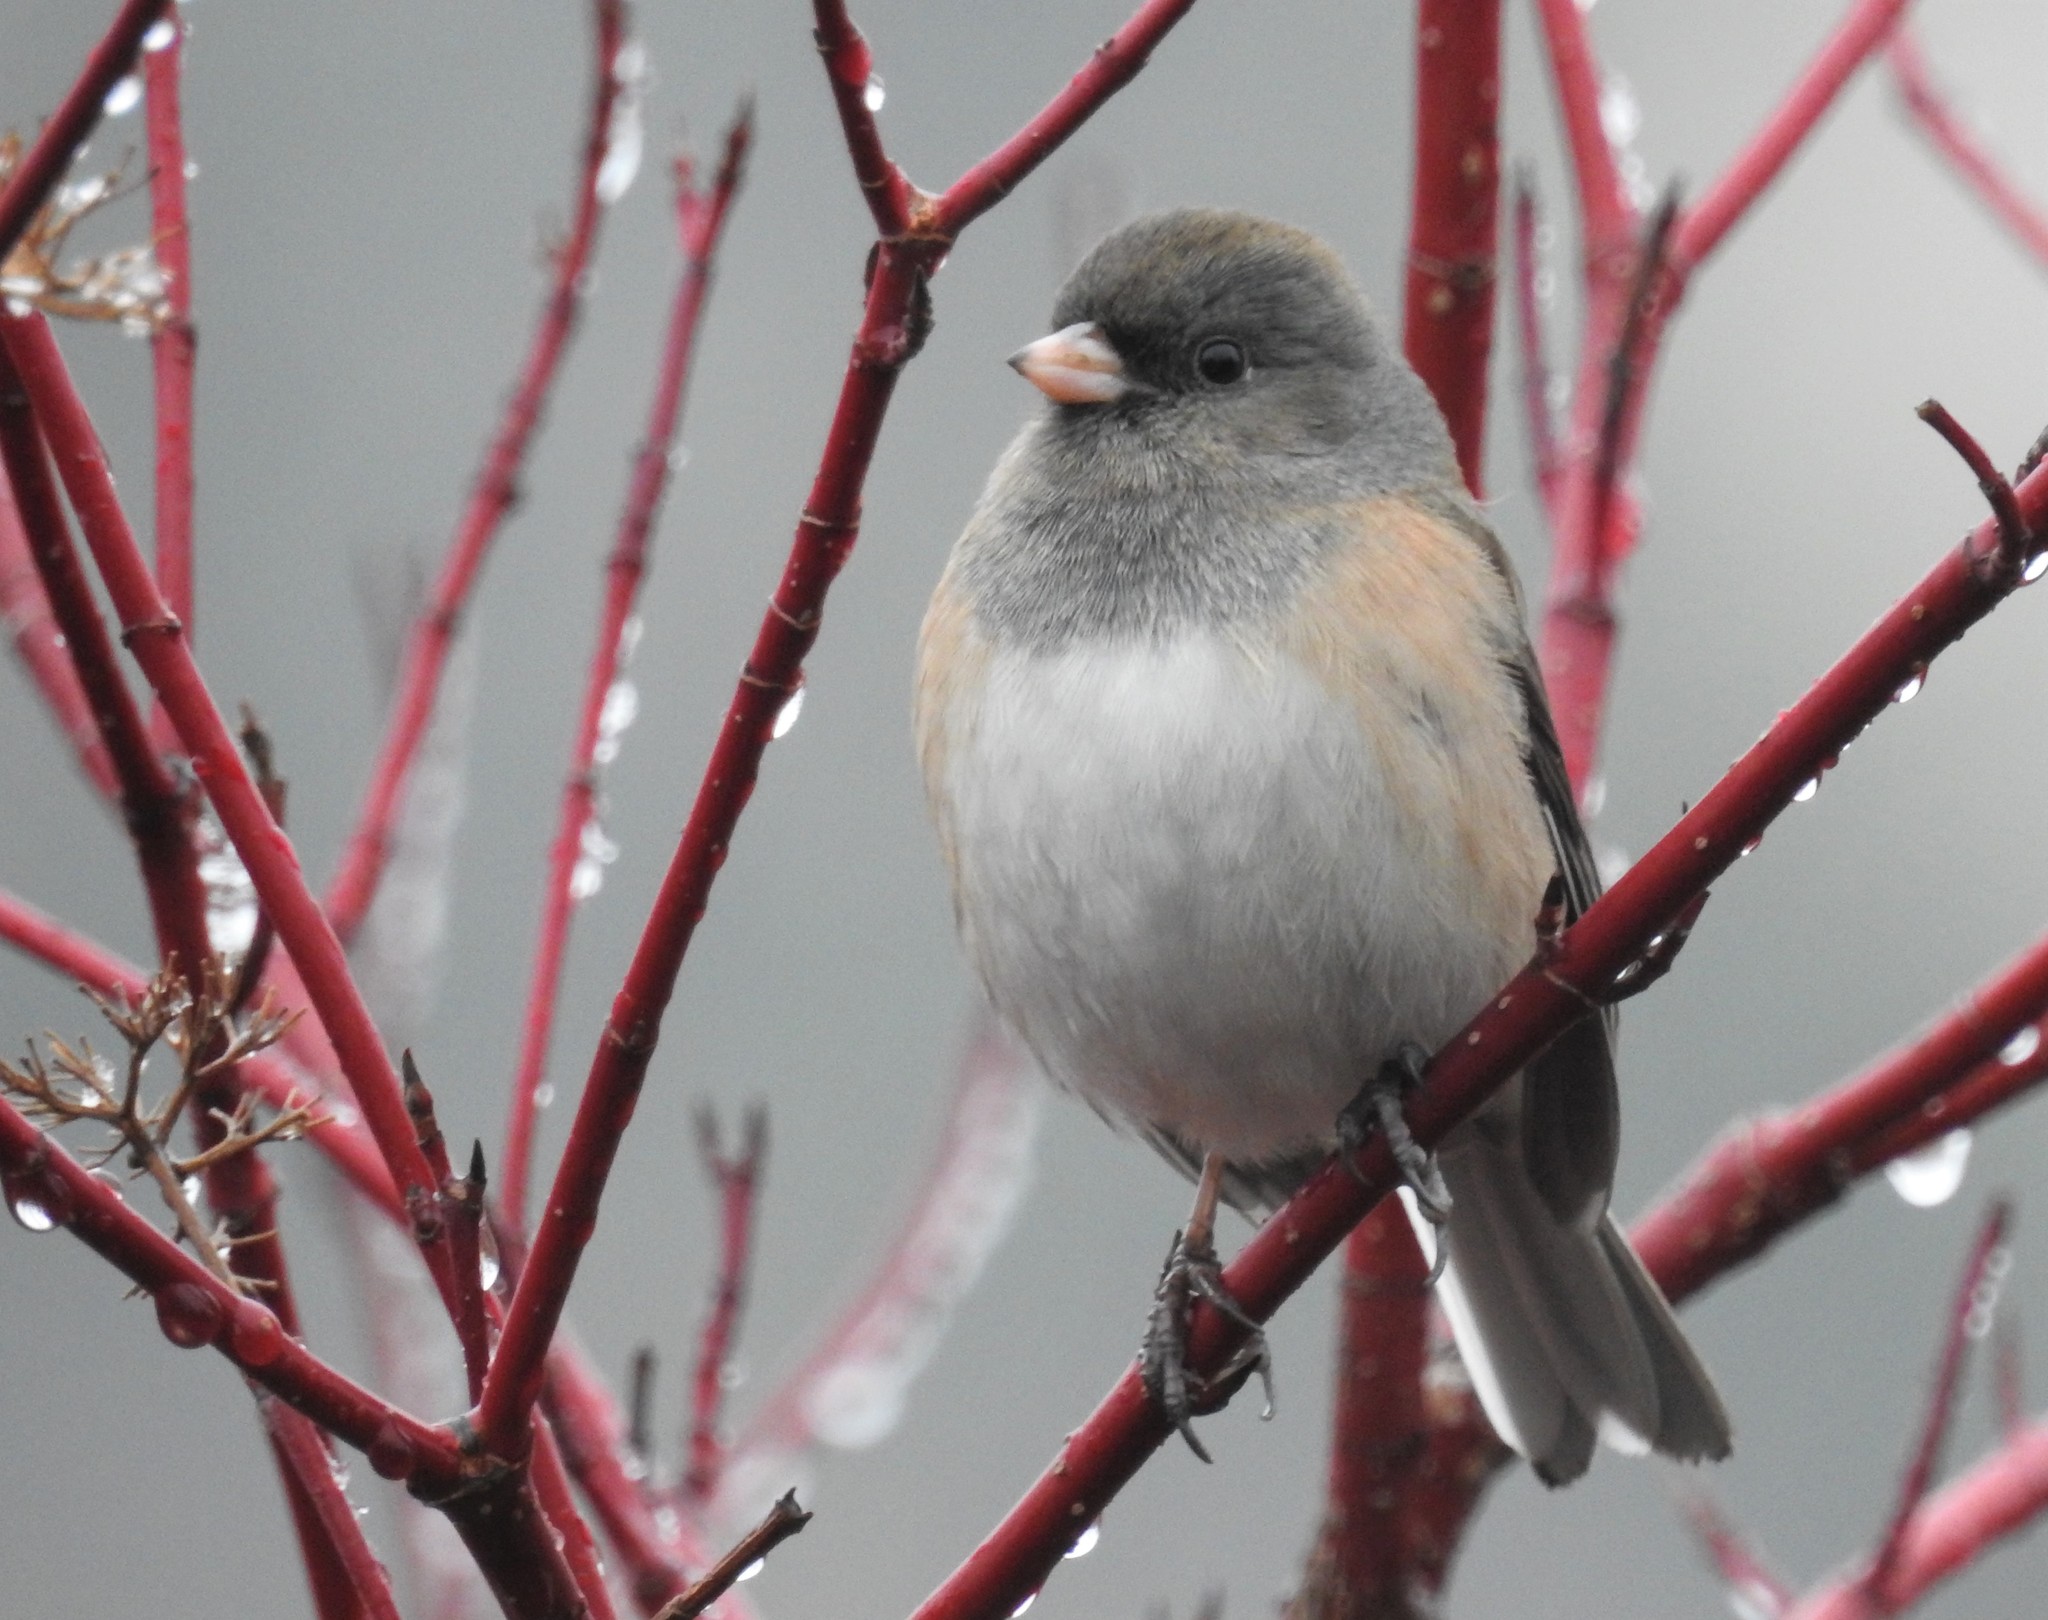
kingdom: Animalia
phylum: Chordata
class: Aves
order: Passeriformes
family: Passerellidae
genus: Junco
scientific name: Junco hyemalis
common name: Dark-eyed junco
